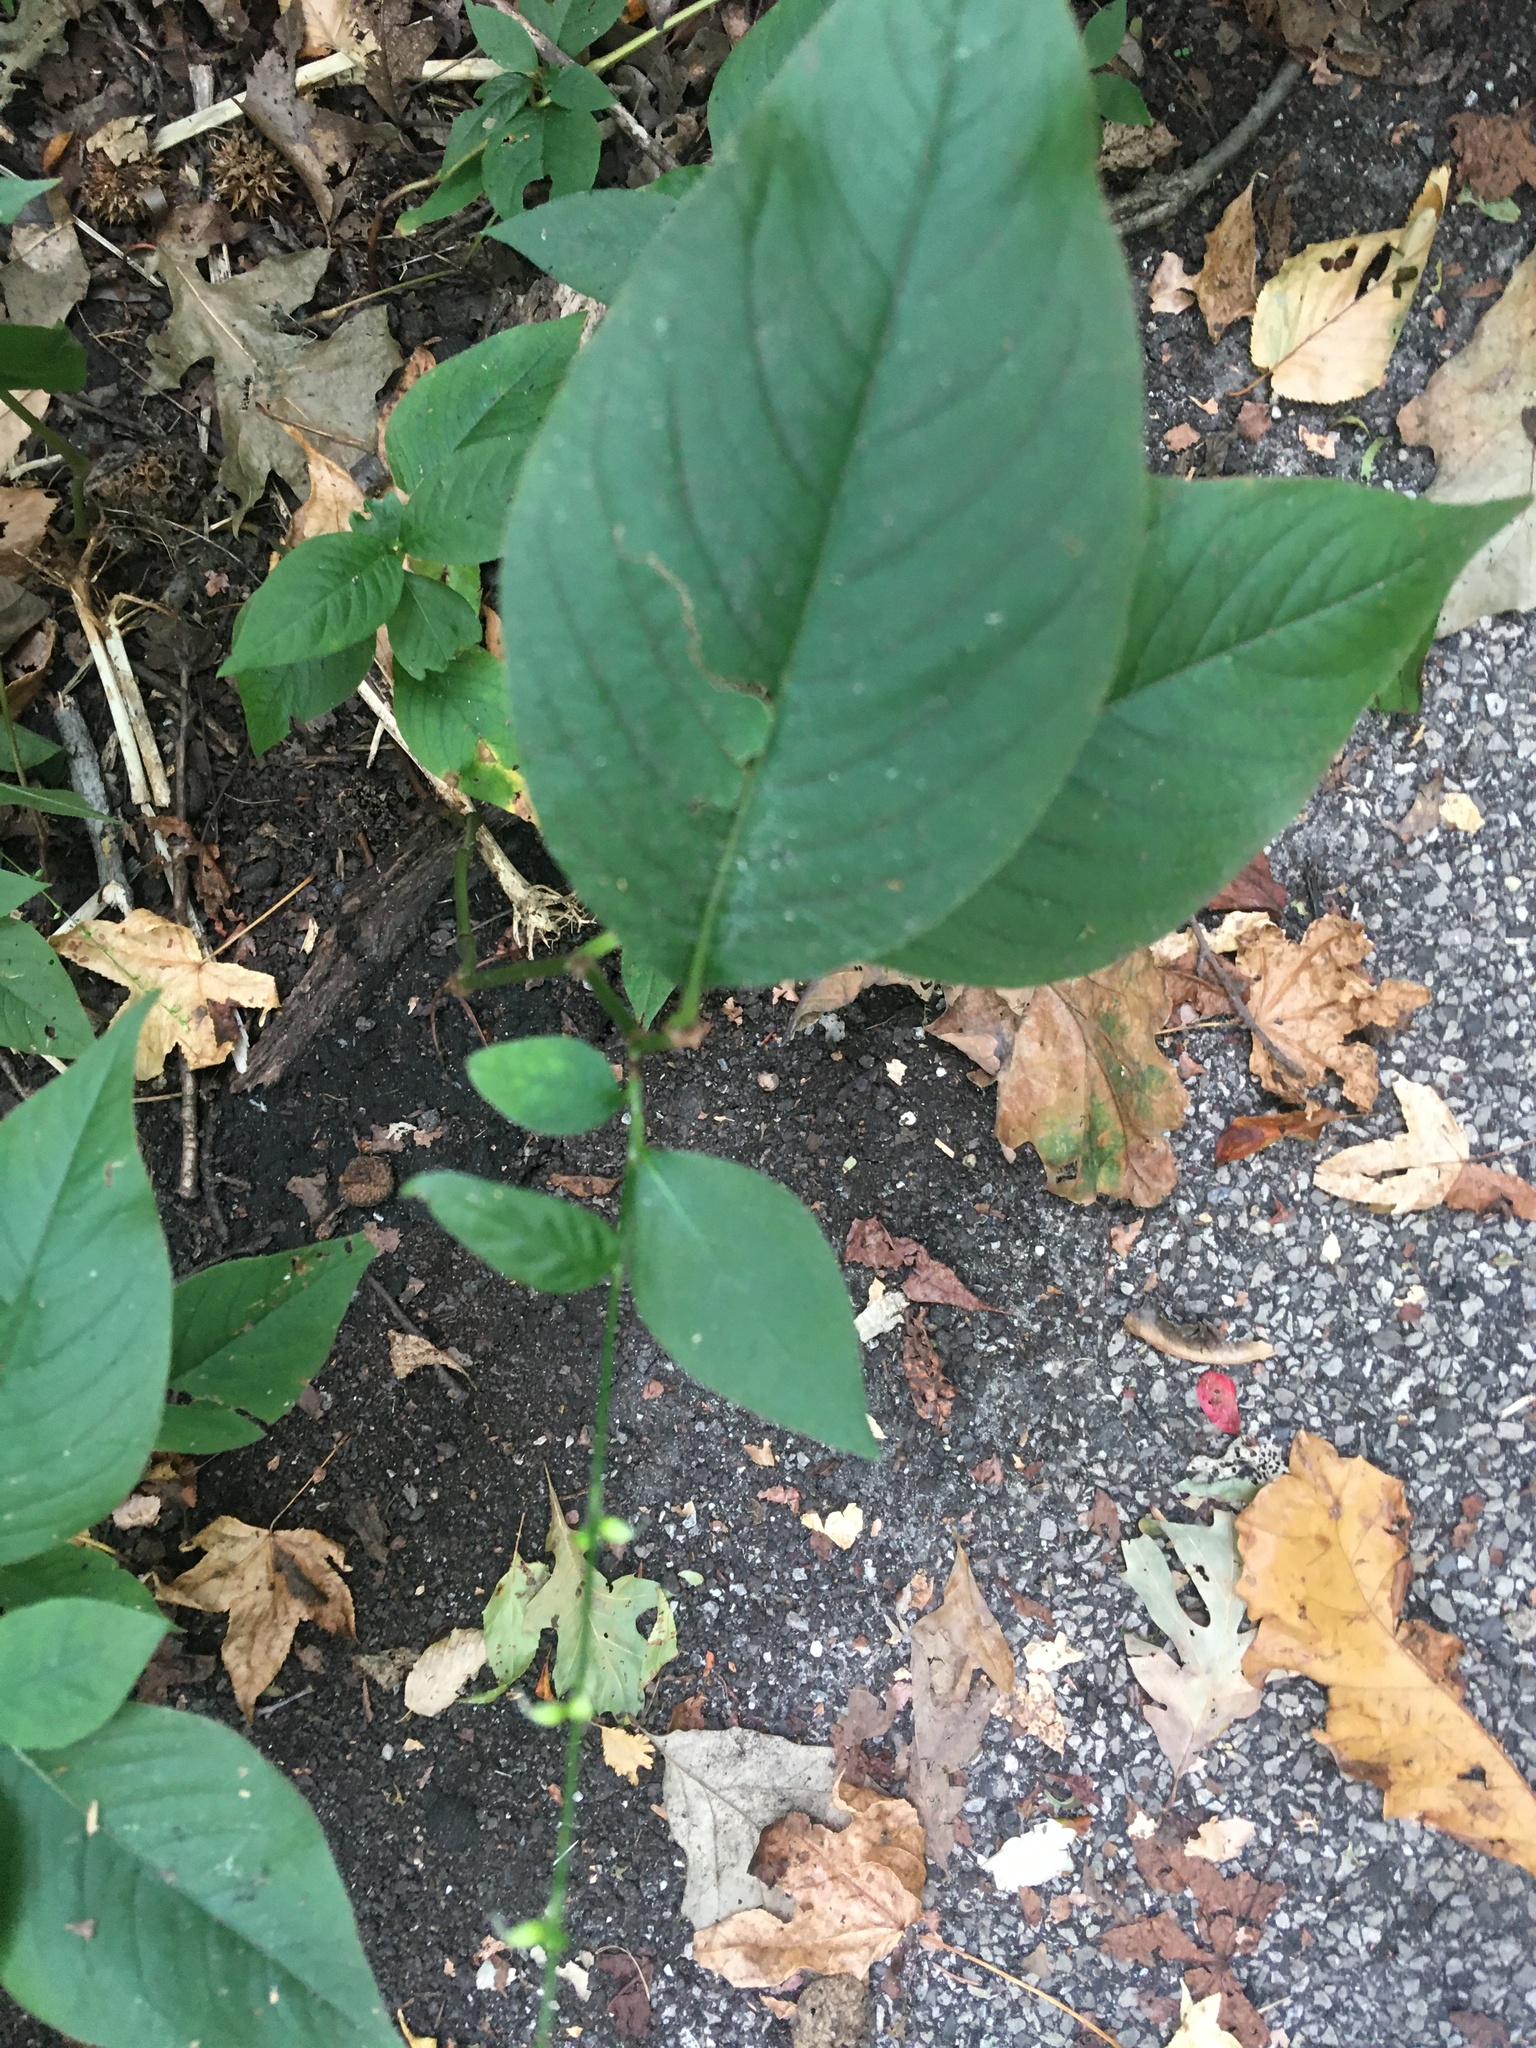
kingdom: Plantae
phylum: Tracheophyta
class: Magnoliopsida
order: Caryophyllales
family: Polygonaceae
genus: Persicaria
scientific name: Persicaria virginiana
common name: Jumpseed
